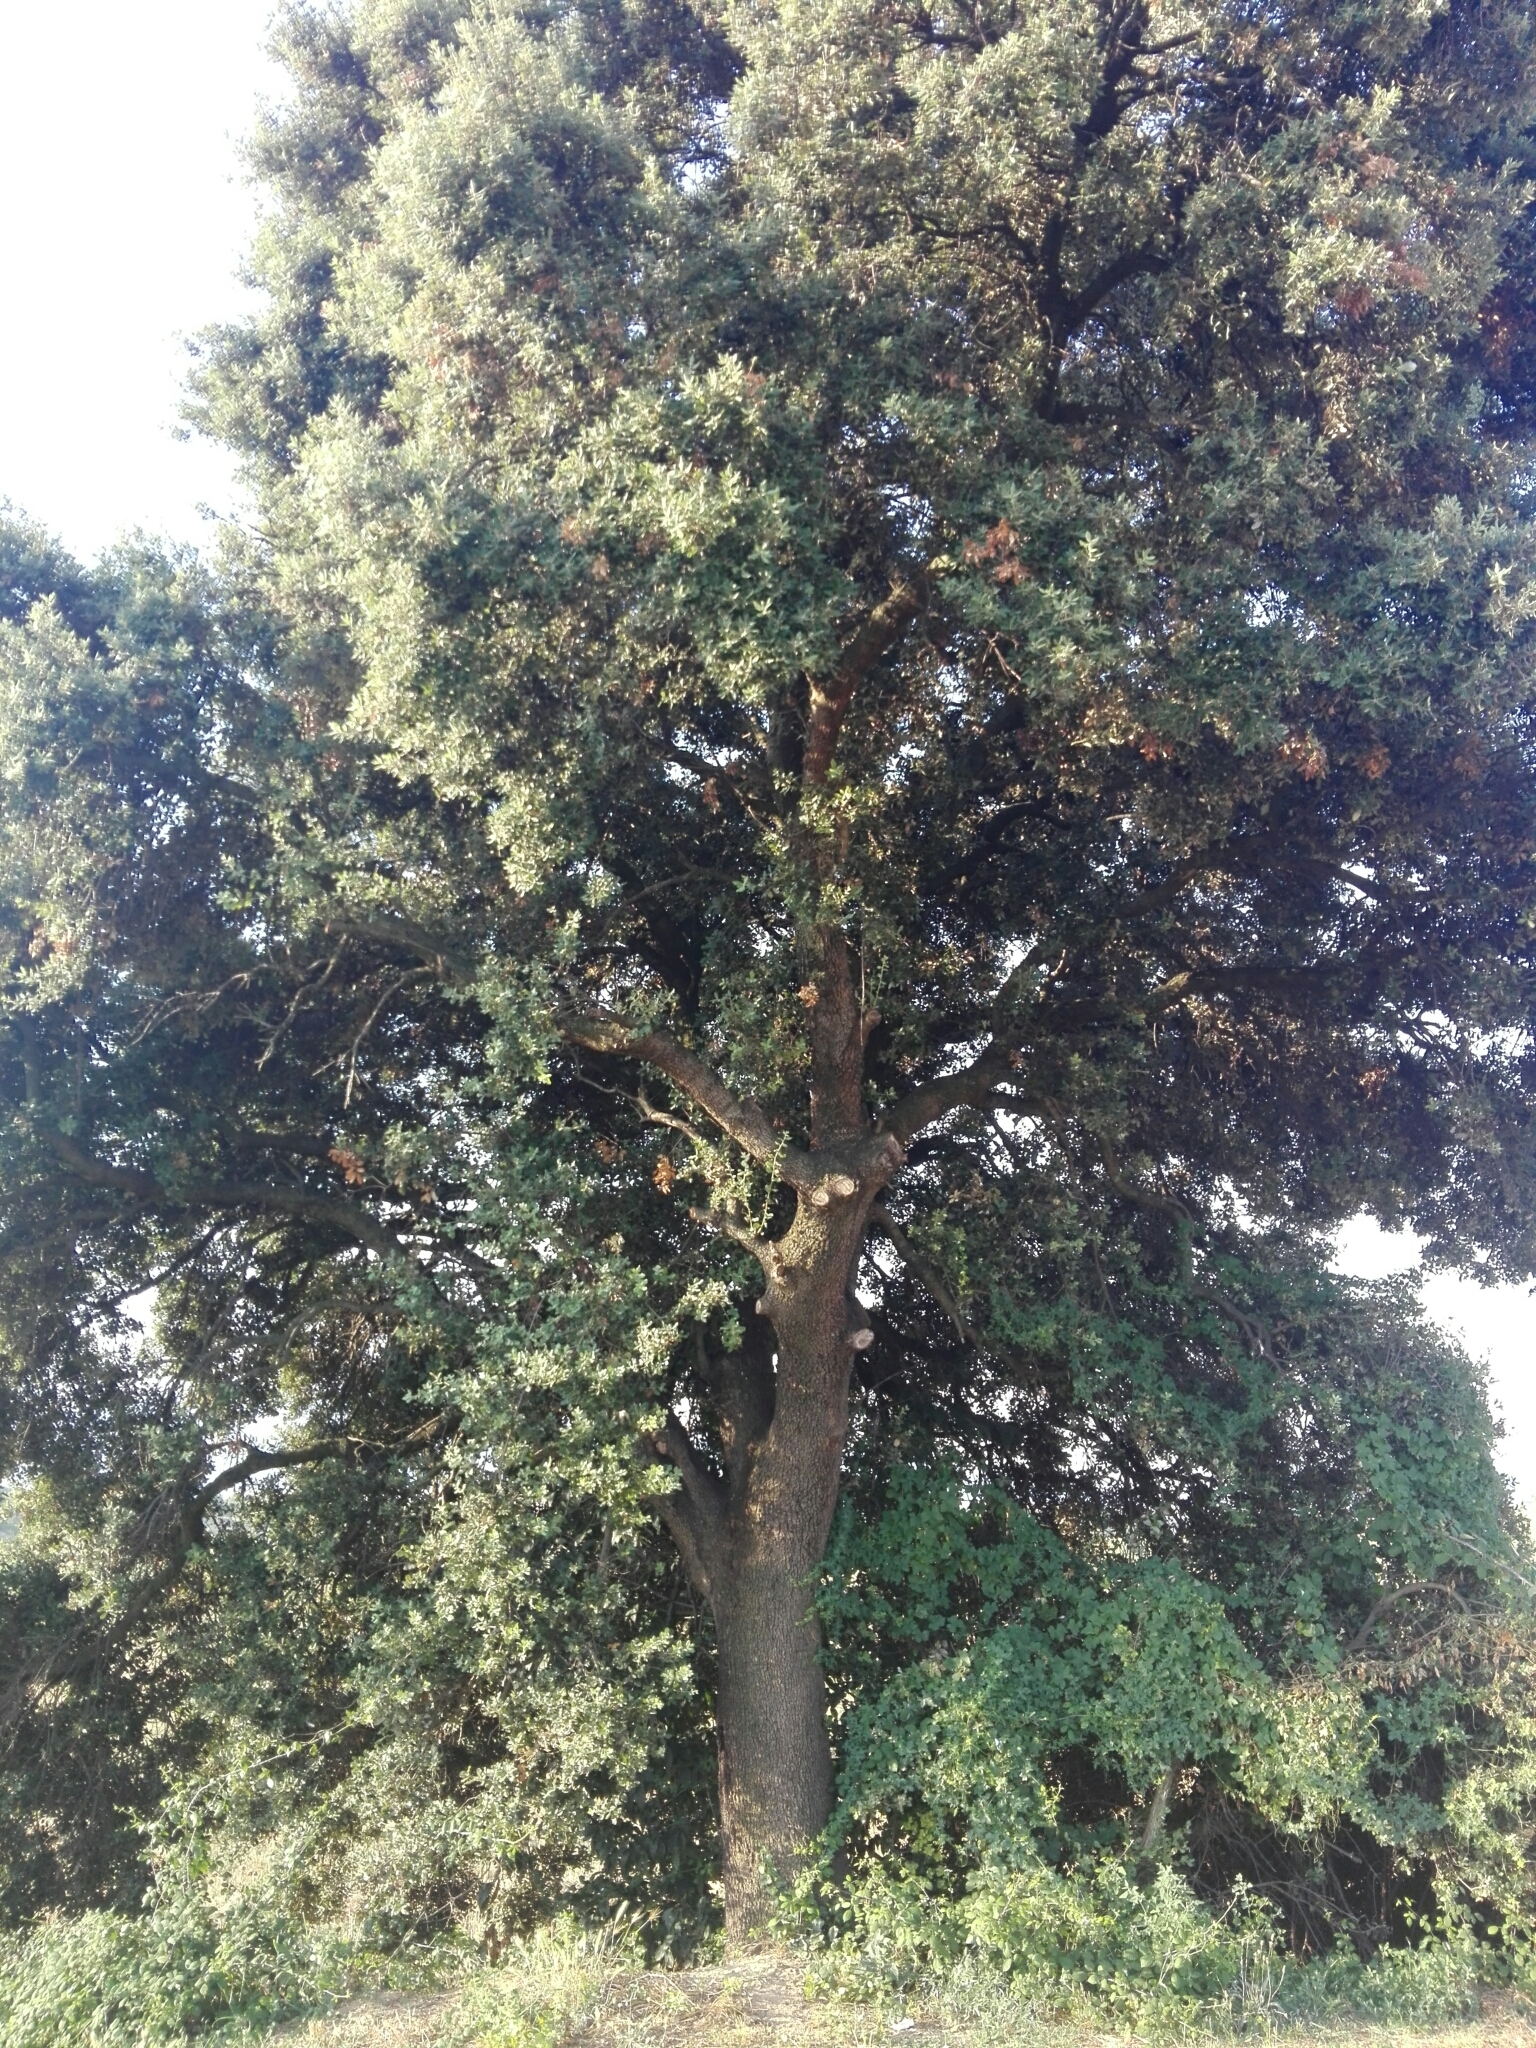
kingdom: Plantae
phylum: Tracheophyta
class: Magnoliopsida
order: Fagales
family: Fagaceae
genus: Quercus
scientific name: Quercus ilex
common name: Evergreen oak
